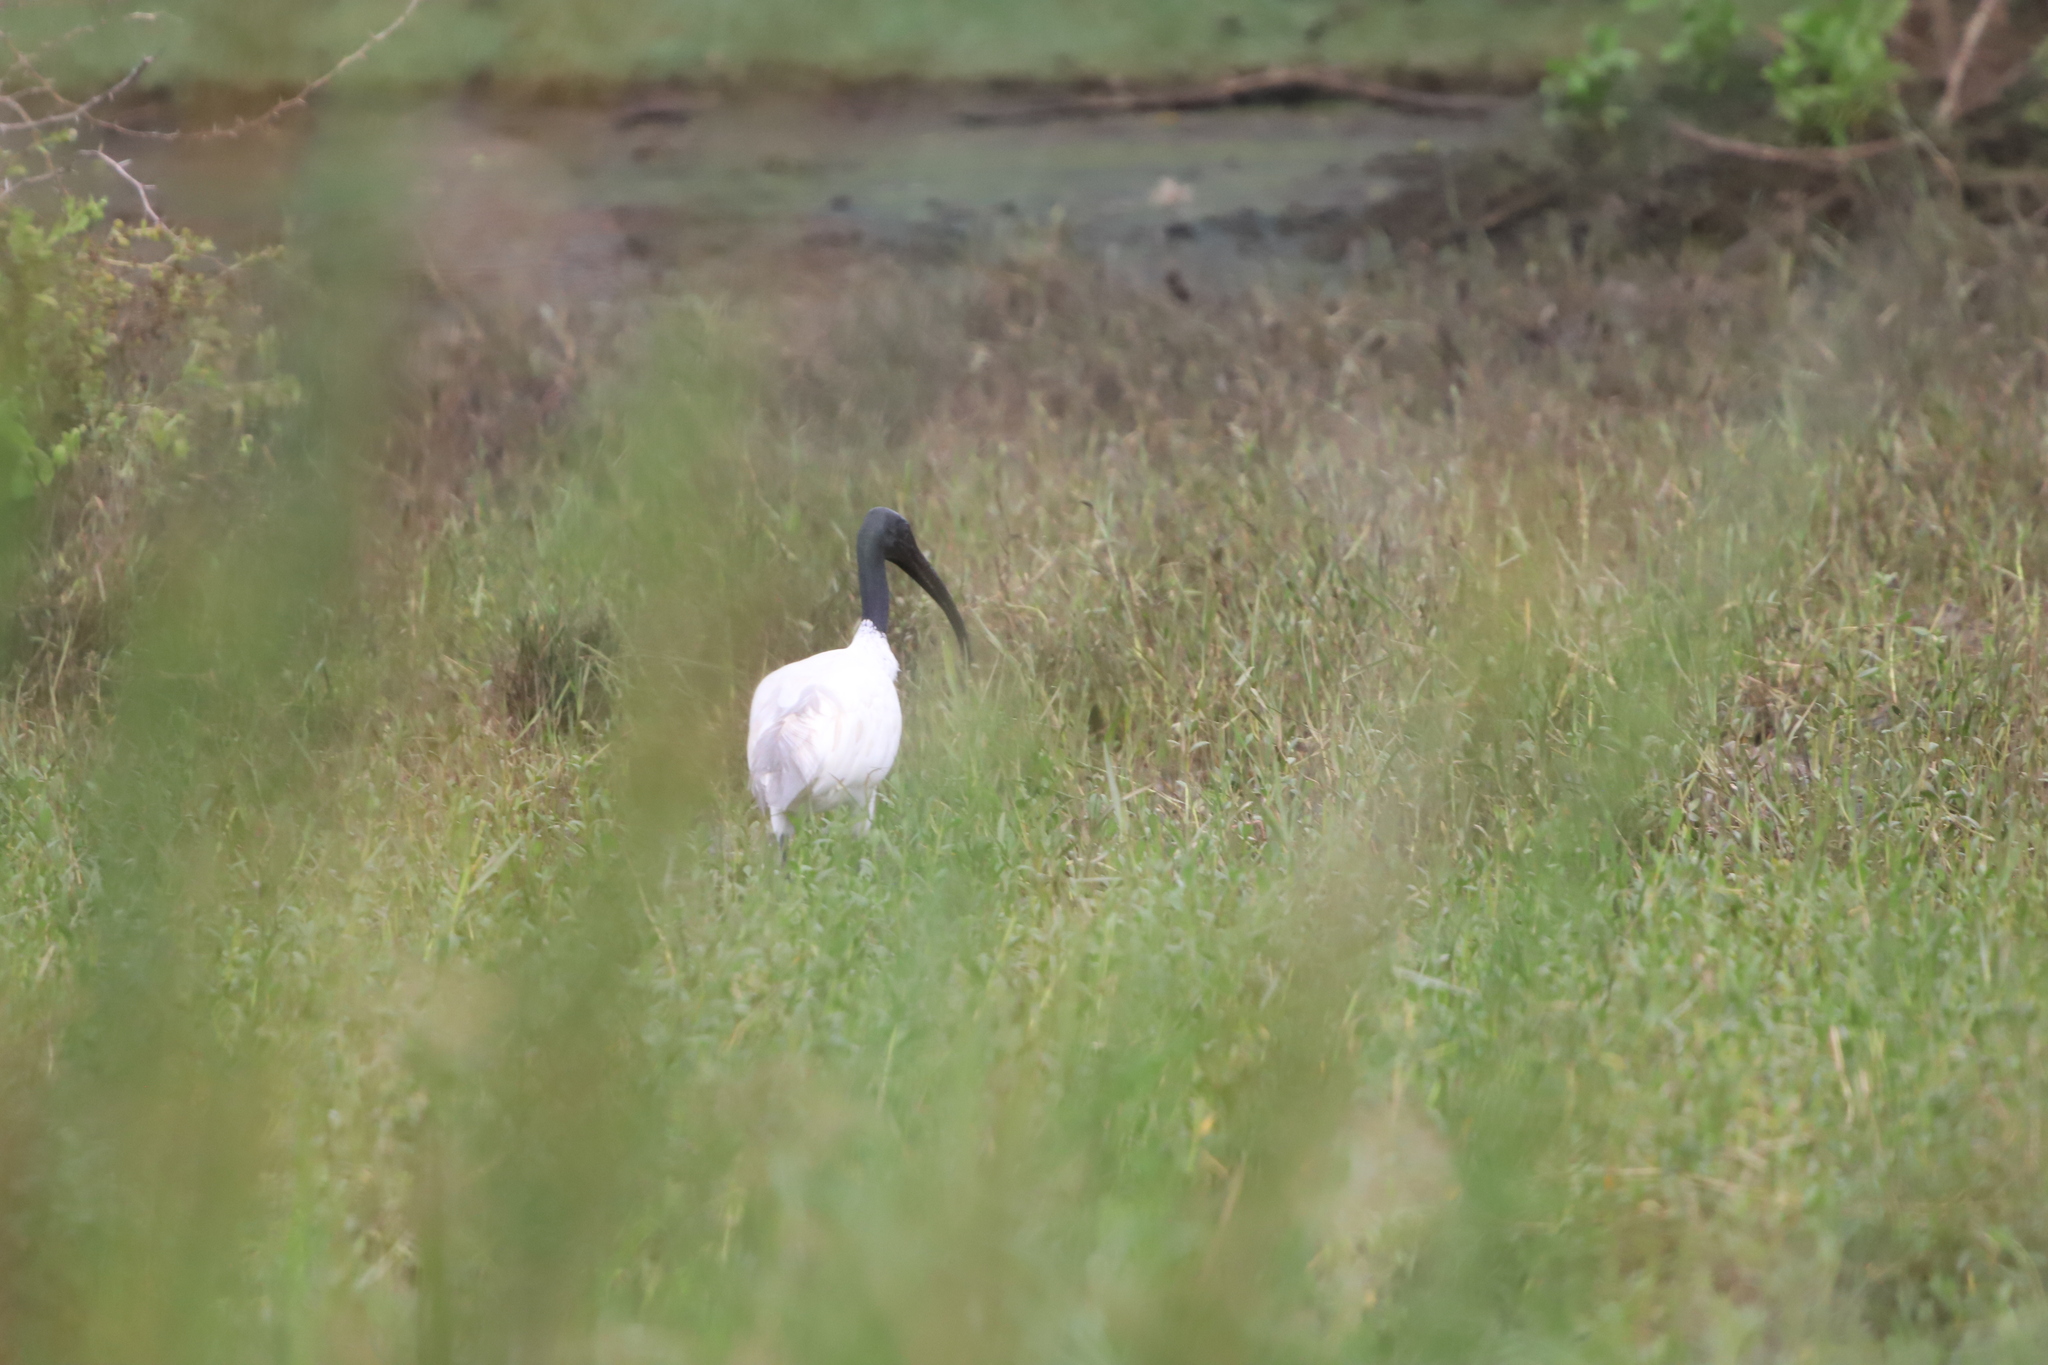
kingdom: Animalia
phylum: Chordata
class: Aves
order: Pelecaniformes
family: Threskiornithidae
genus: Threskiornis
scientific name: Threskiornis melanocephalus
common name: Black-headed ibis
